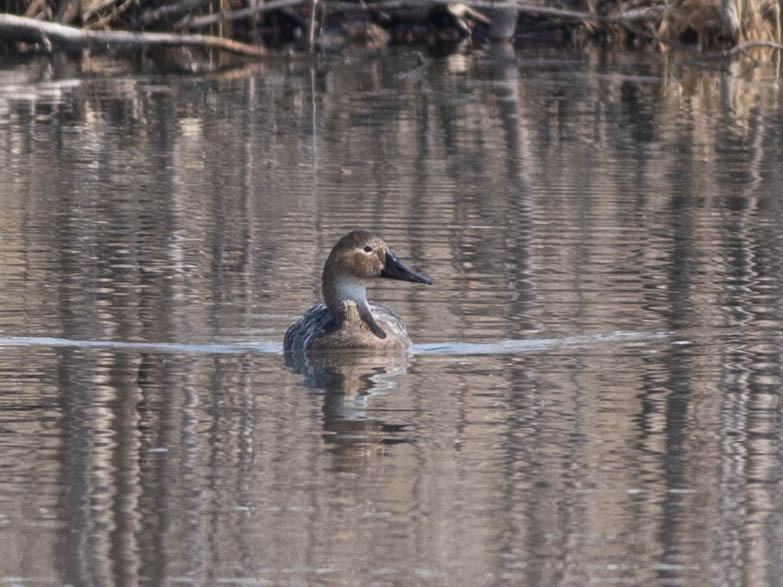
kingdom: Animalia
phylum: Chordata
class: Aves
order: Anseriformes
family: Anatidae
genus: Aythya
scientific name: Aythya valisineria
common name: Canvasback
